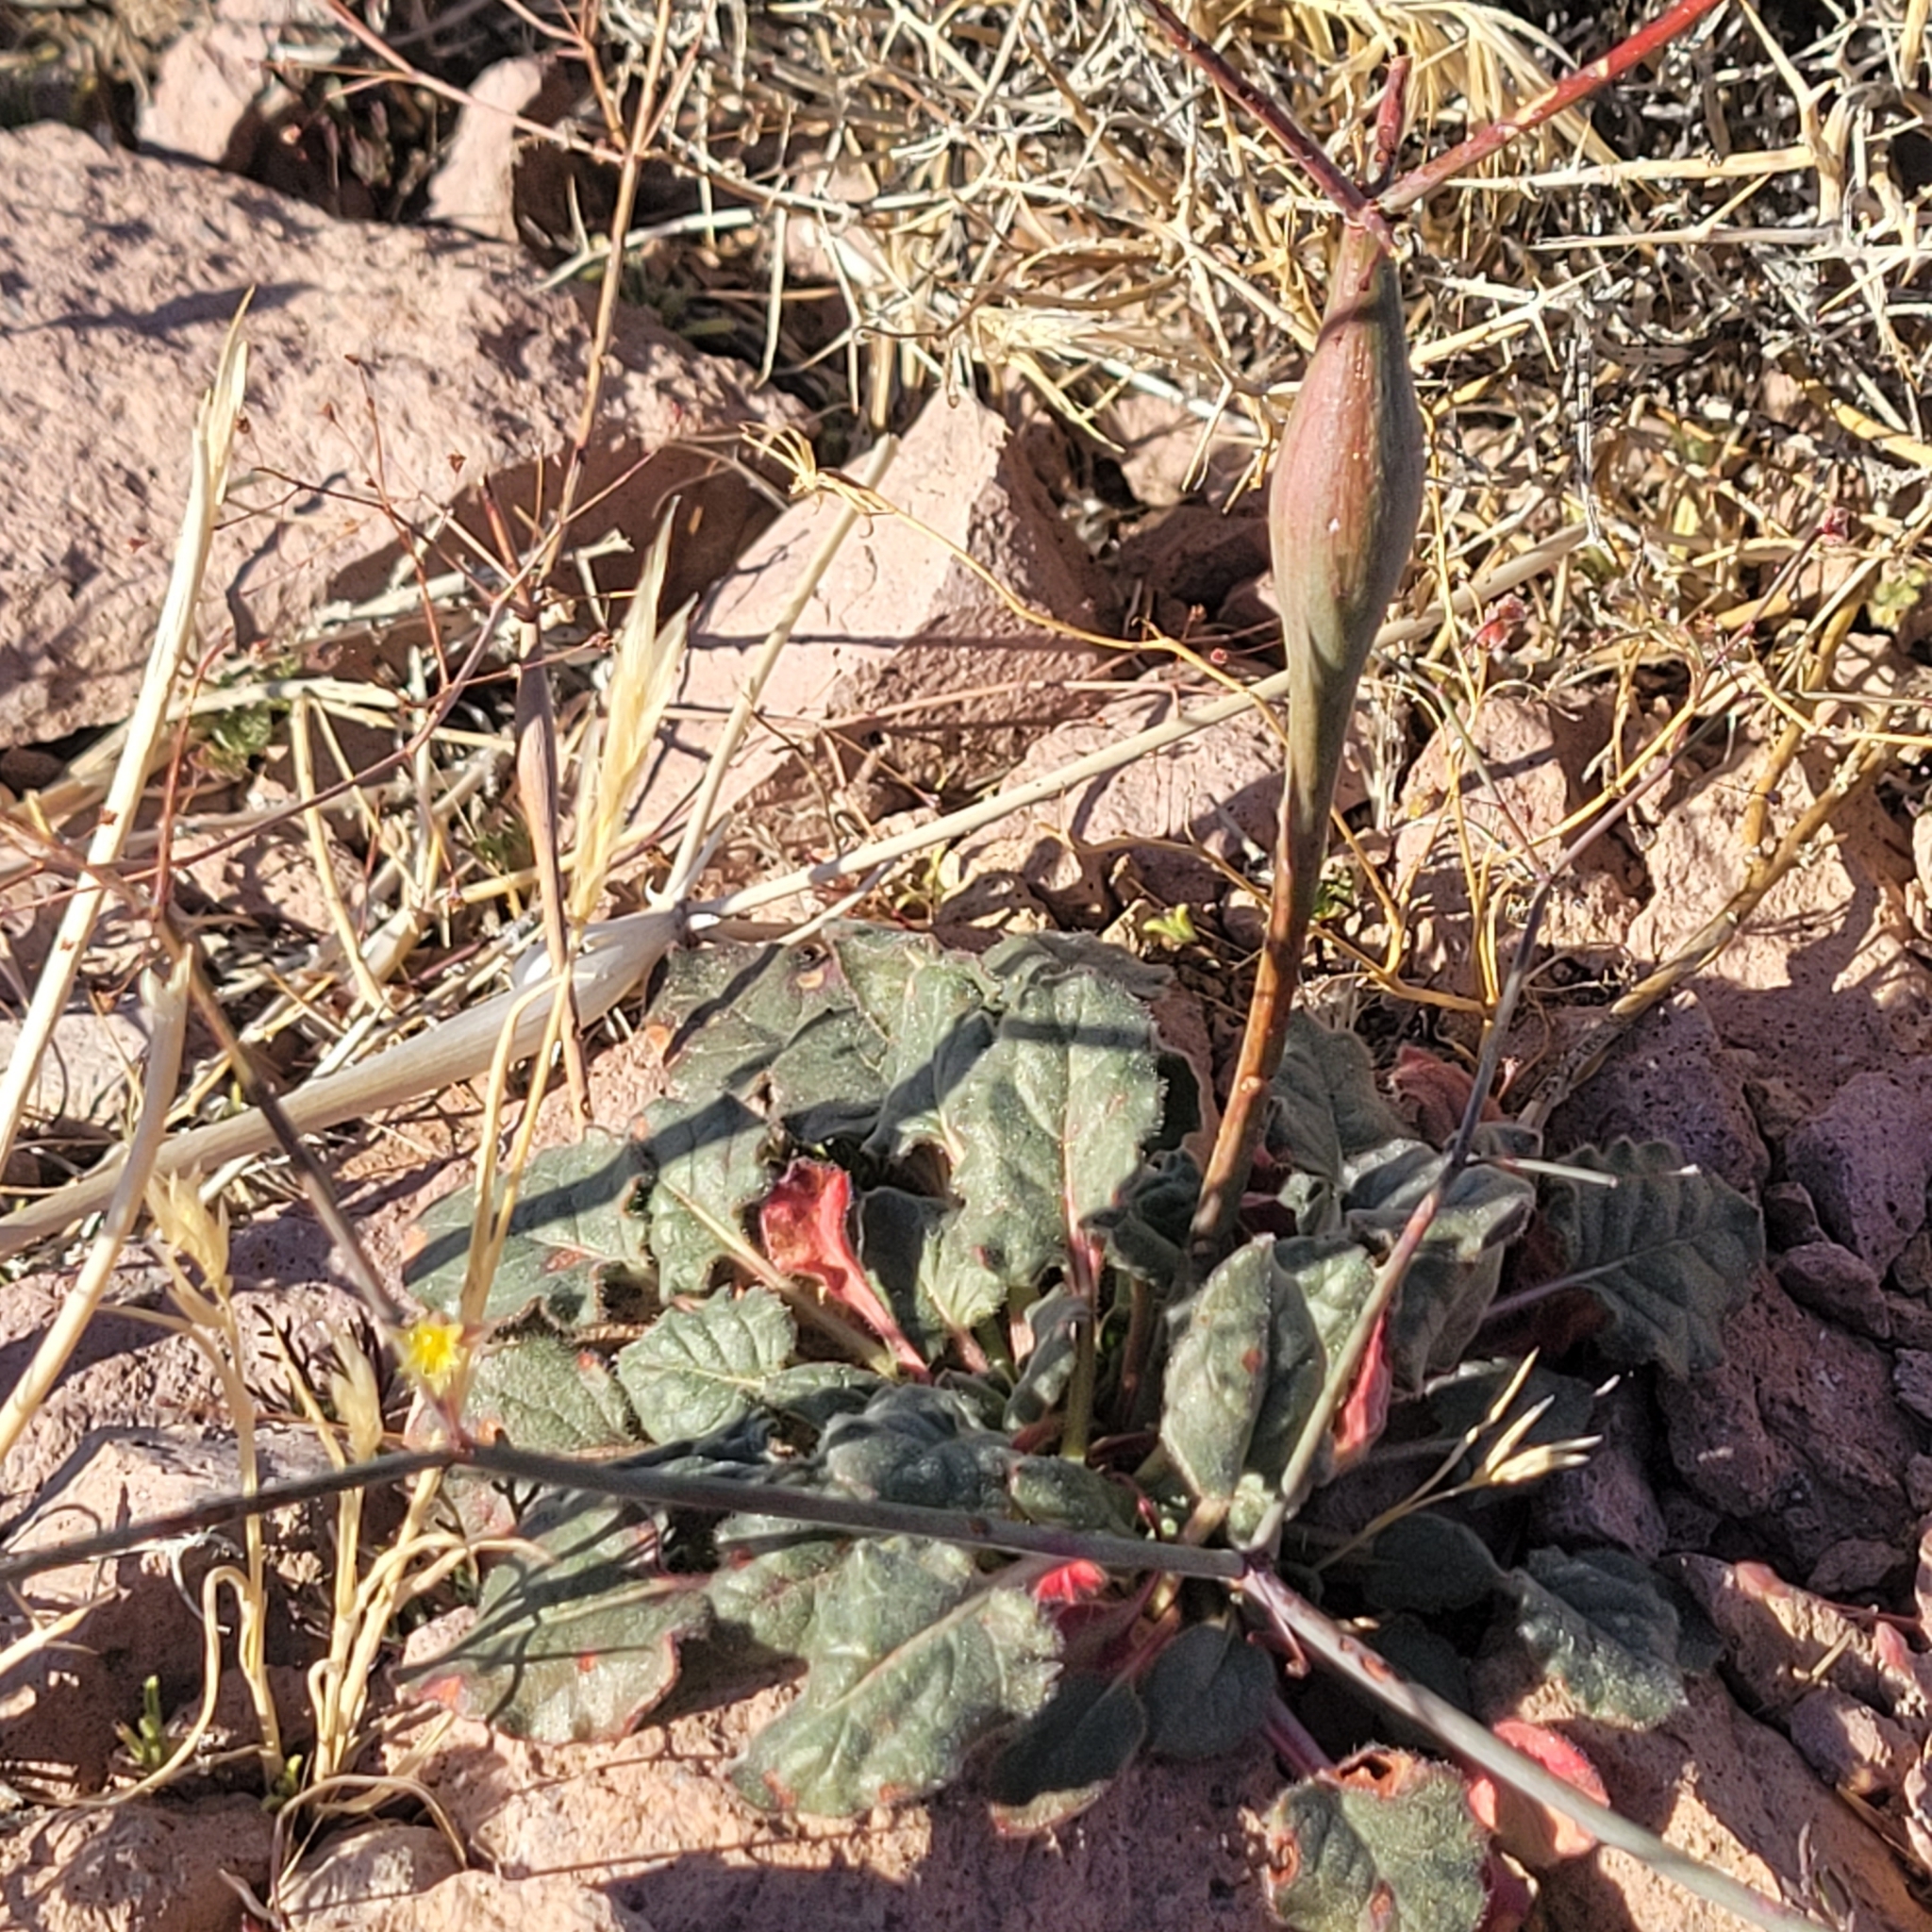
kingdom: Plantae
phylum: Tracheophyta
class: Magnoliopsida
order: Caryophyllales
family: Polygonaceae
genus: Eriogonum
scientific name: Eriogonum inflatum
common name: Desert trumpet
